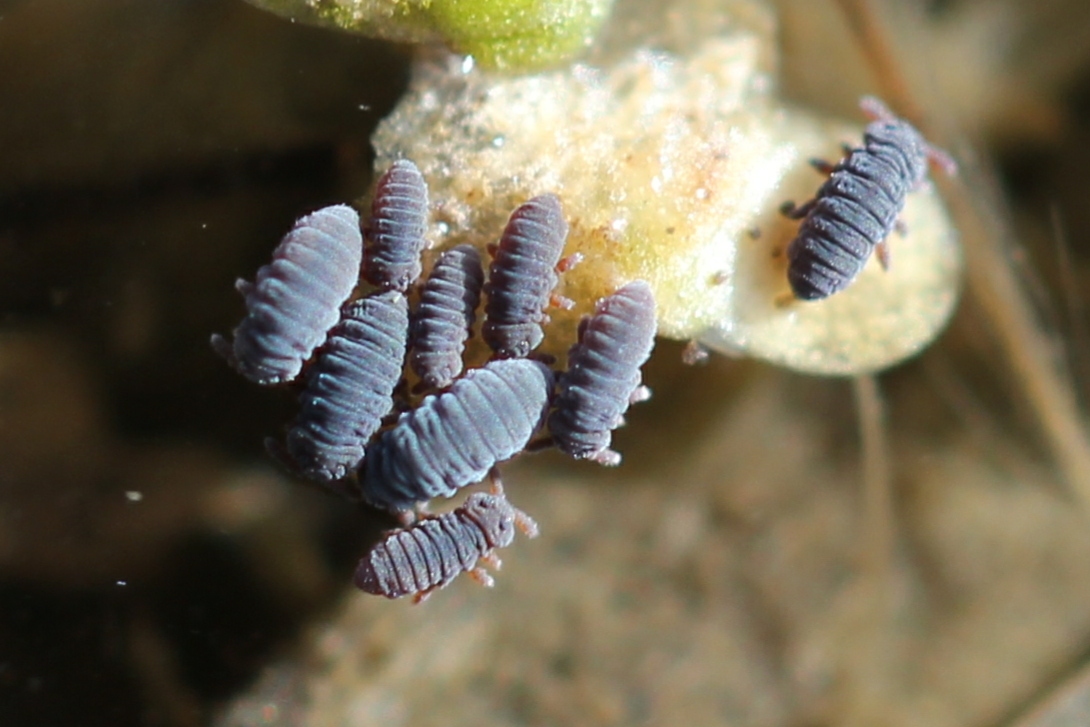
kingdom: Animalia
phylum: Arthropoda
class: Collembola
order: Poduromorpha
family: Poduridae
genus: Podura
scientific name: Podura aquatica
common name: Water springtail
